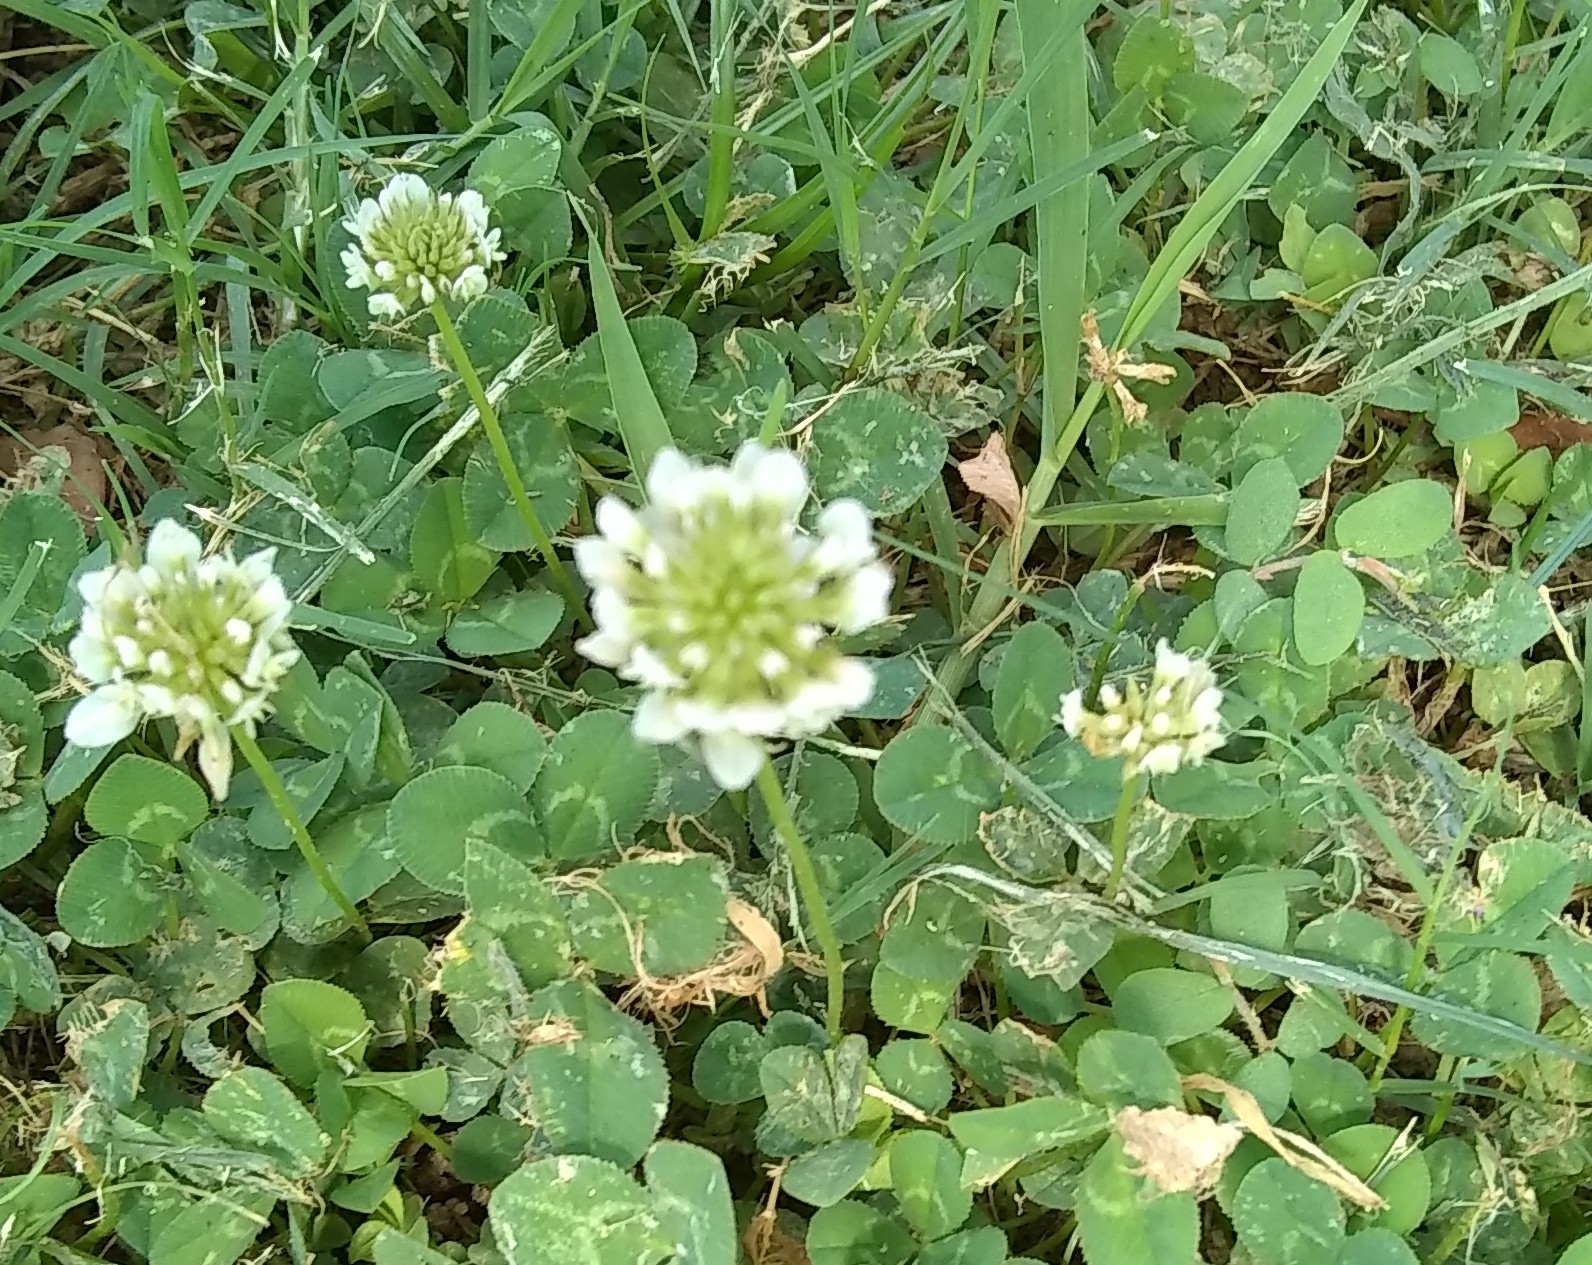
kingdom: Plantae
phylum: Tracheophyta
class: Magnoliopsida
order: Fabales
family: Fabaceae
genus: Trifolium
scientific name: Trifolium repens
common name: White clover
